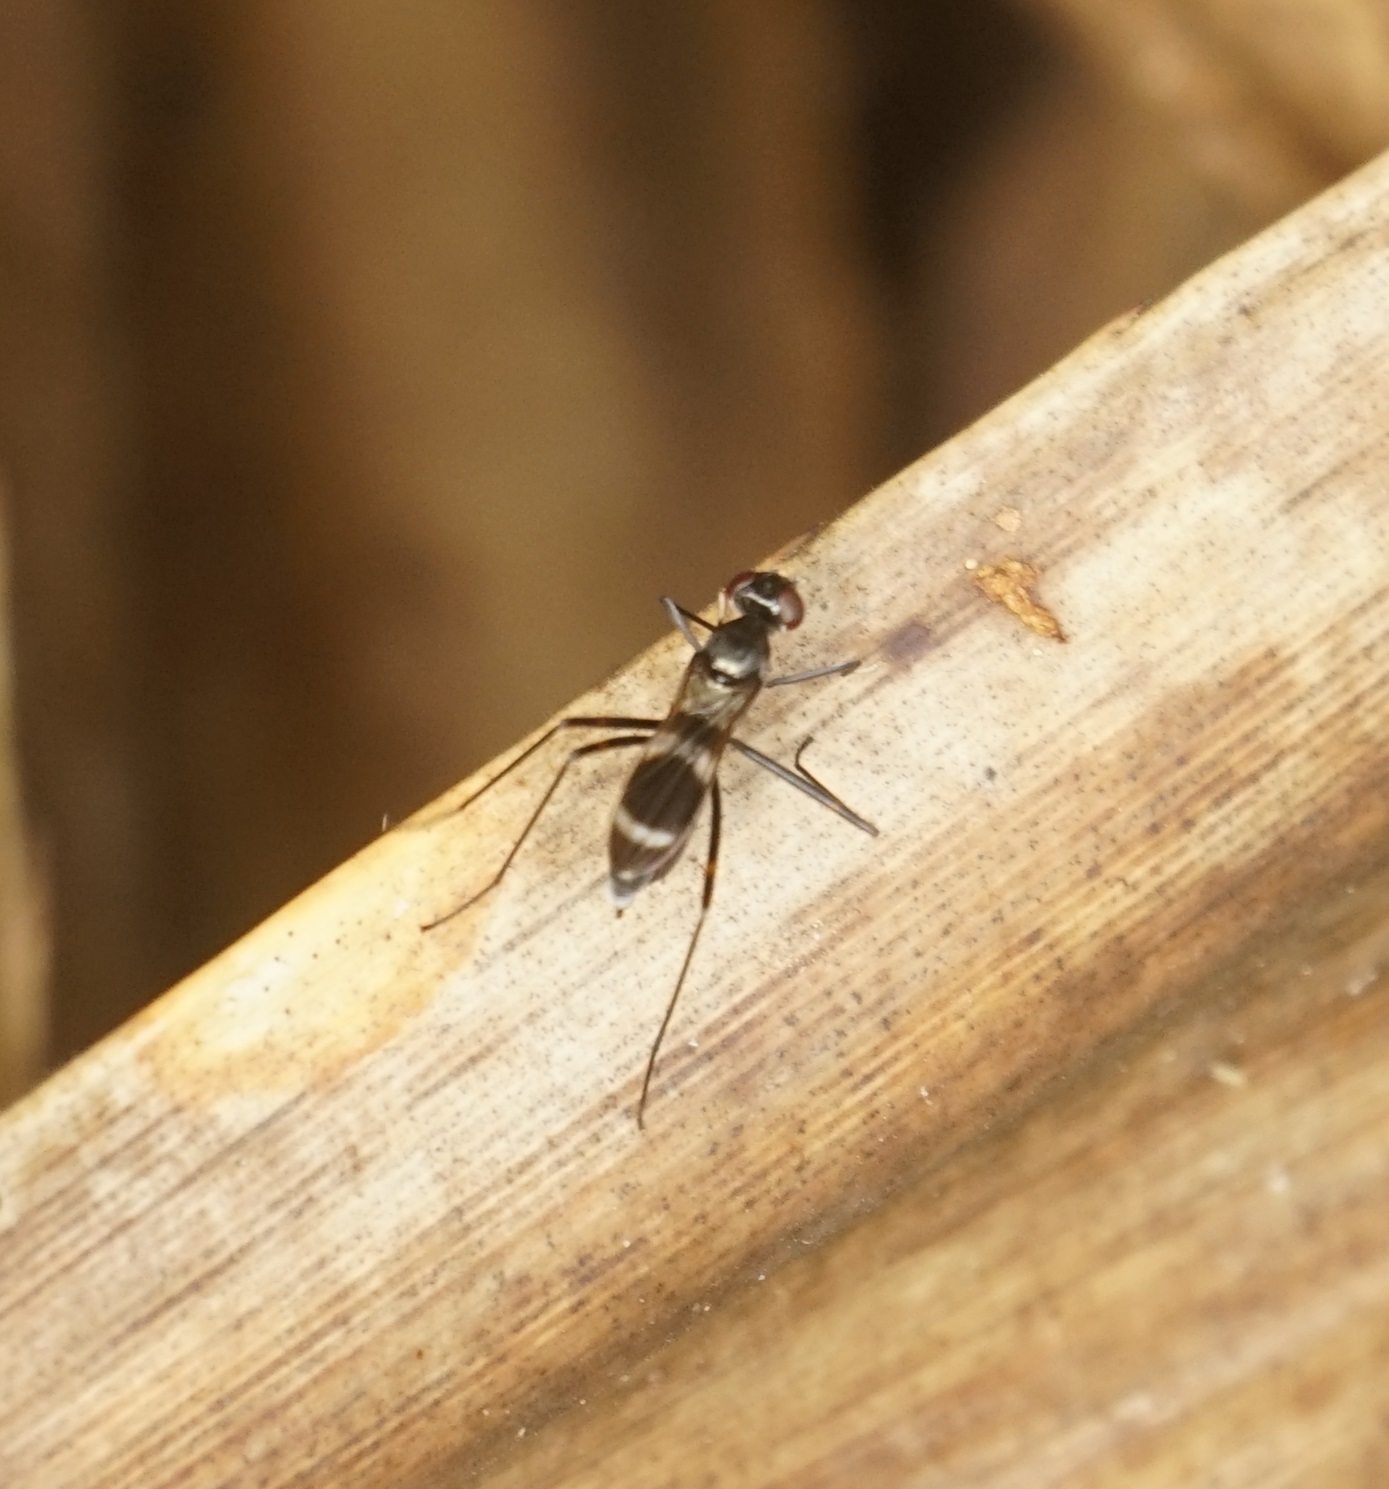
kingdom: Animalia
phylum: Arthropoda
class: Insecta
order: Diptera
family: Micropezidae
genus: Mimegralla
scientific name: Mimegralla australica
